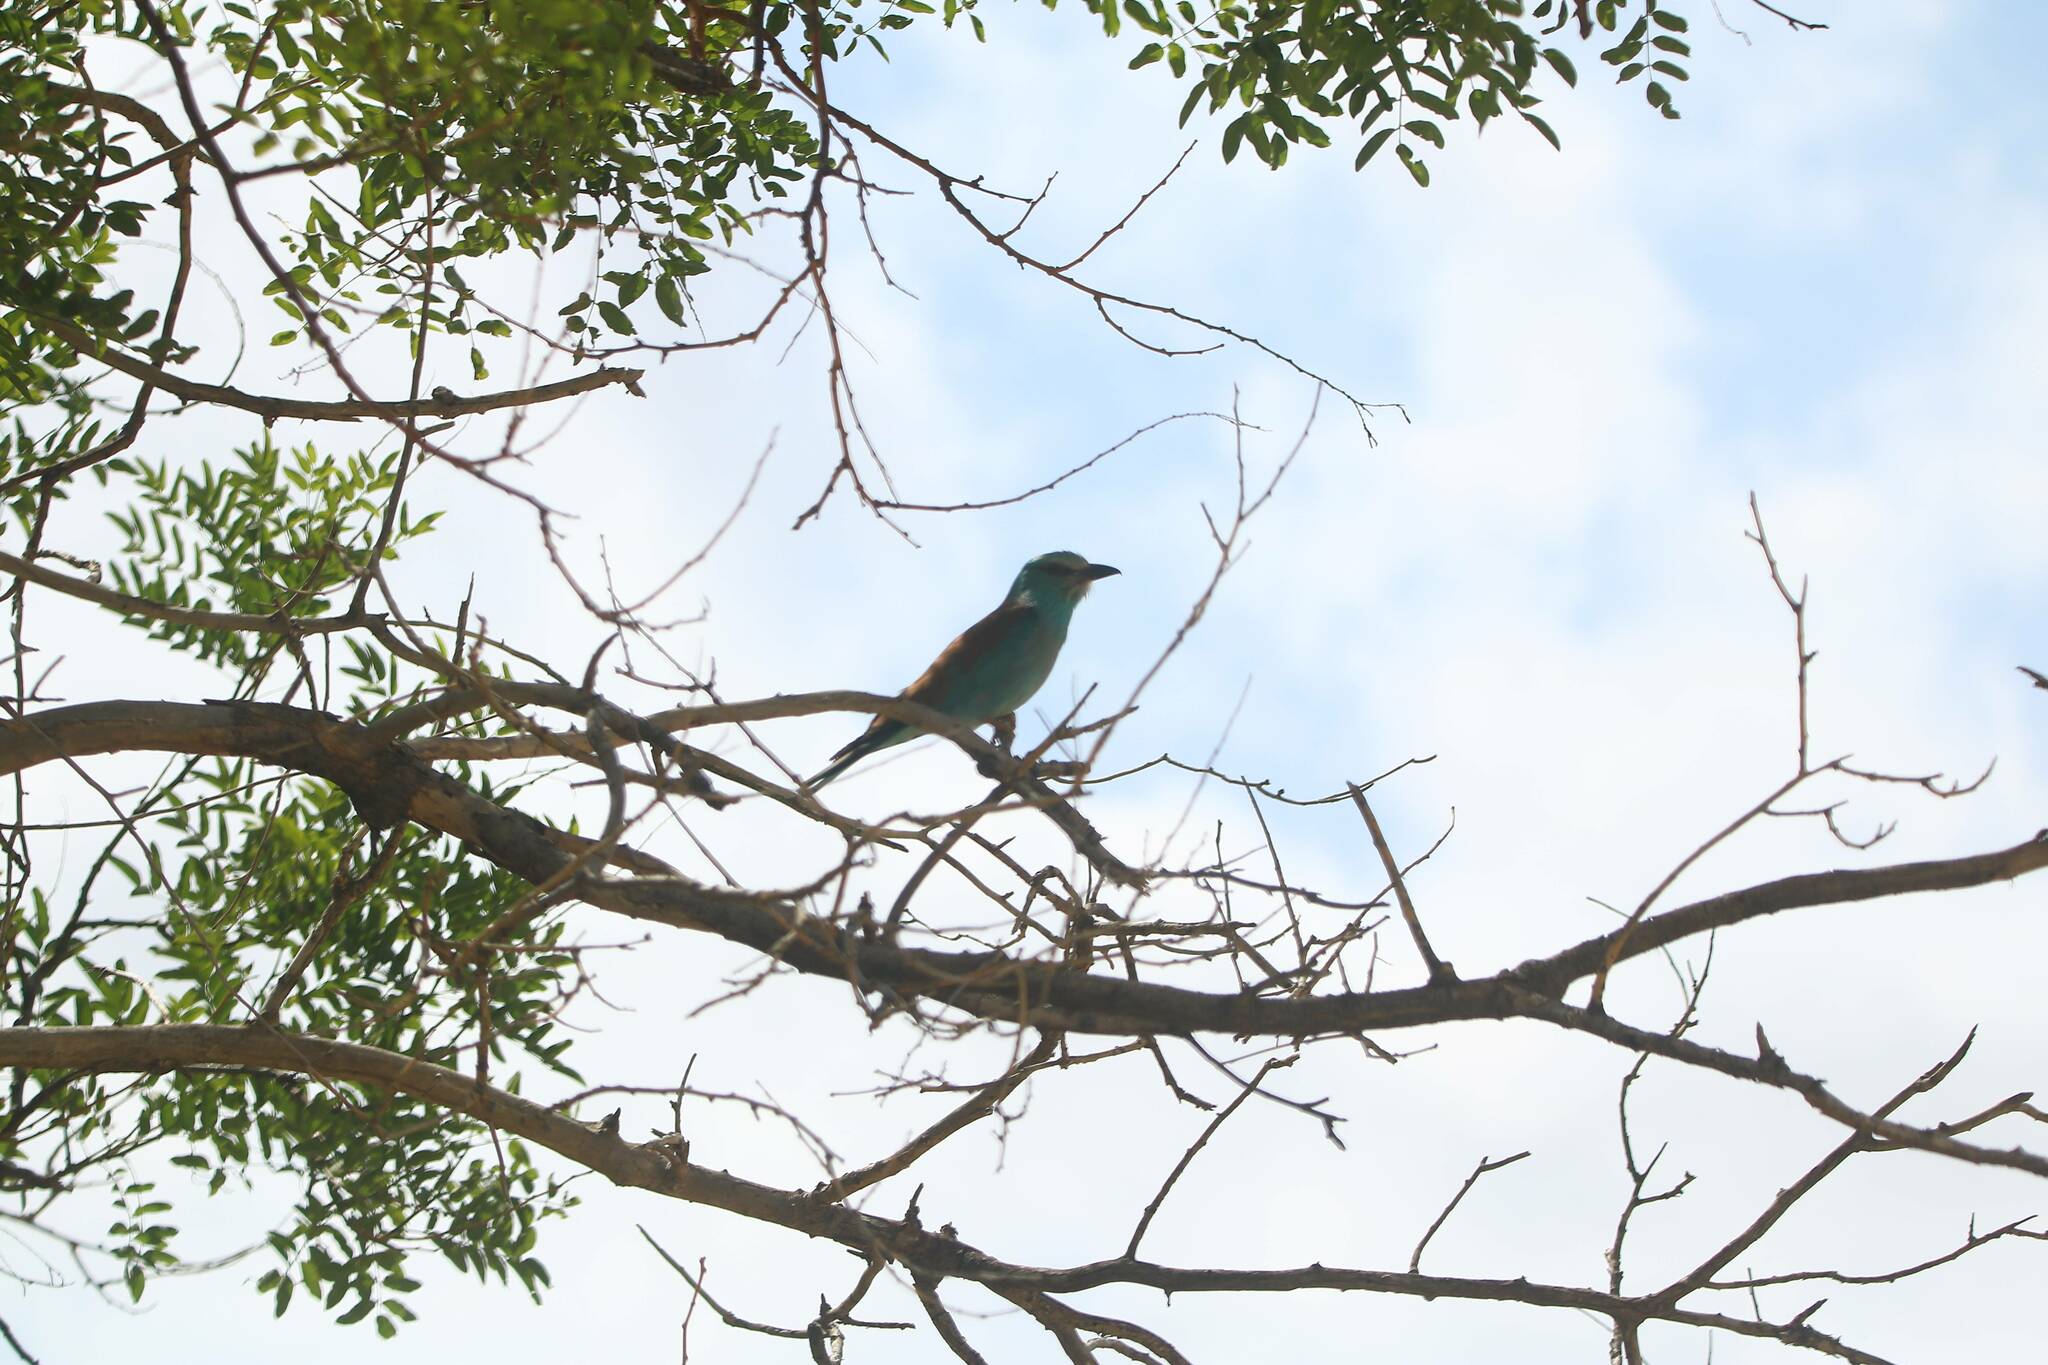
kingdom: Animalia
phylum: Chordata
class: Aves
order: Coraciiformes
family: Coraciidae
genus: Coracias
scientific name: Coracias garrulus
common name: European roller
